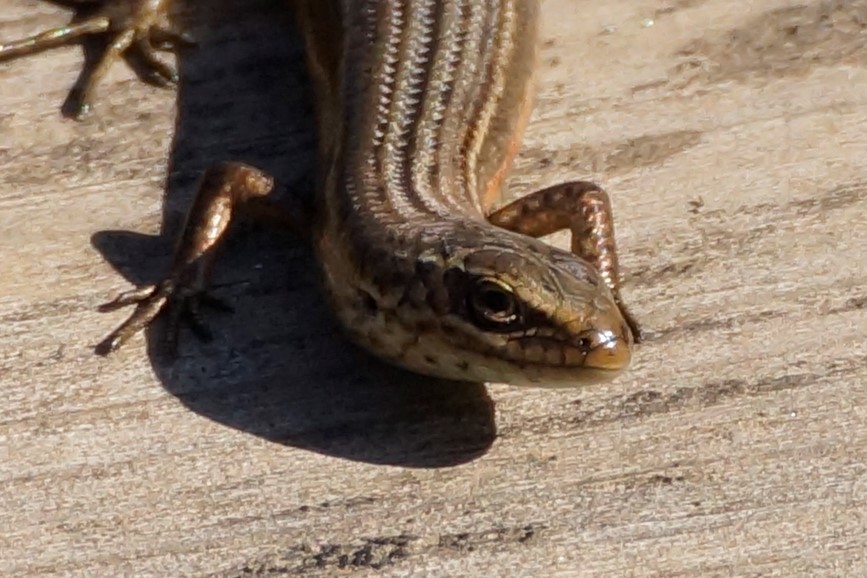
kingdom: Animalia
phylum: Chordata
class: Squamata
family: Scincidae
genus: Pseudemoia
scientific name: Pseudemoia pagenstecheri
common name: Southern grass tussock skink
